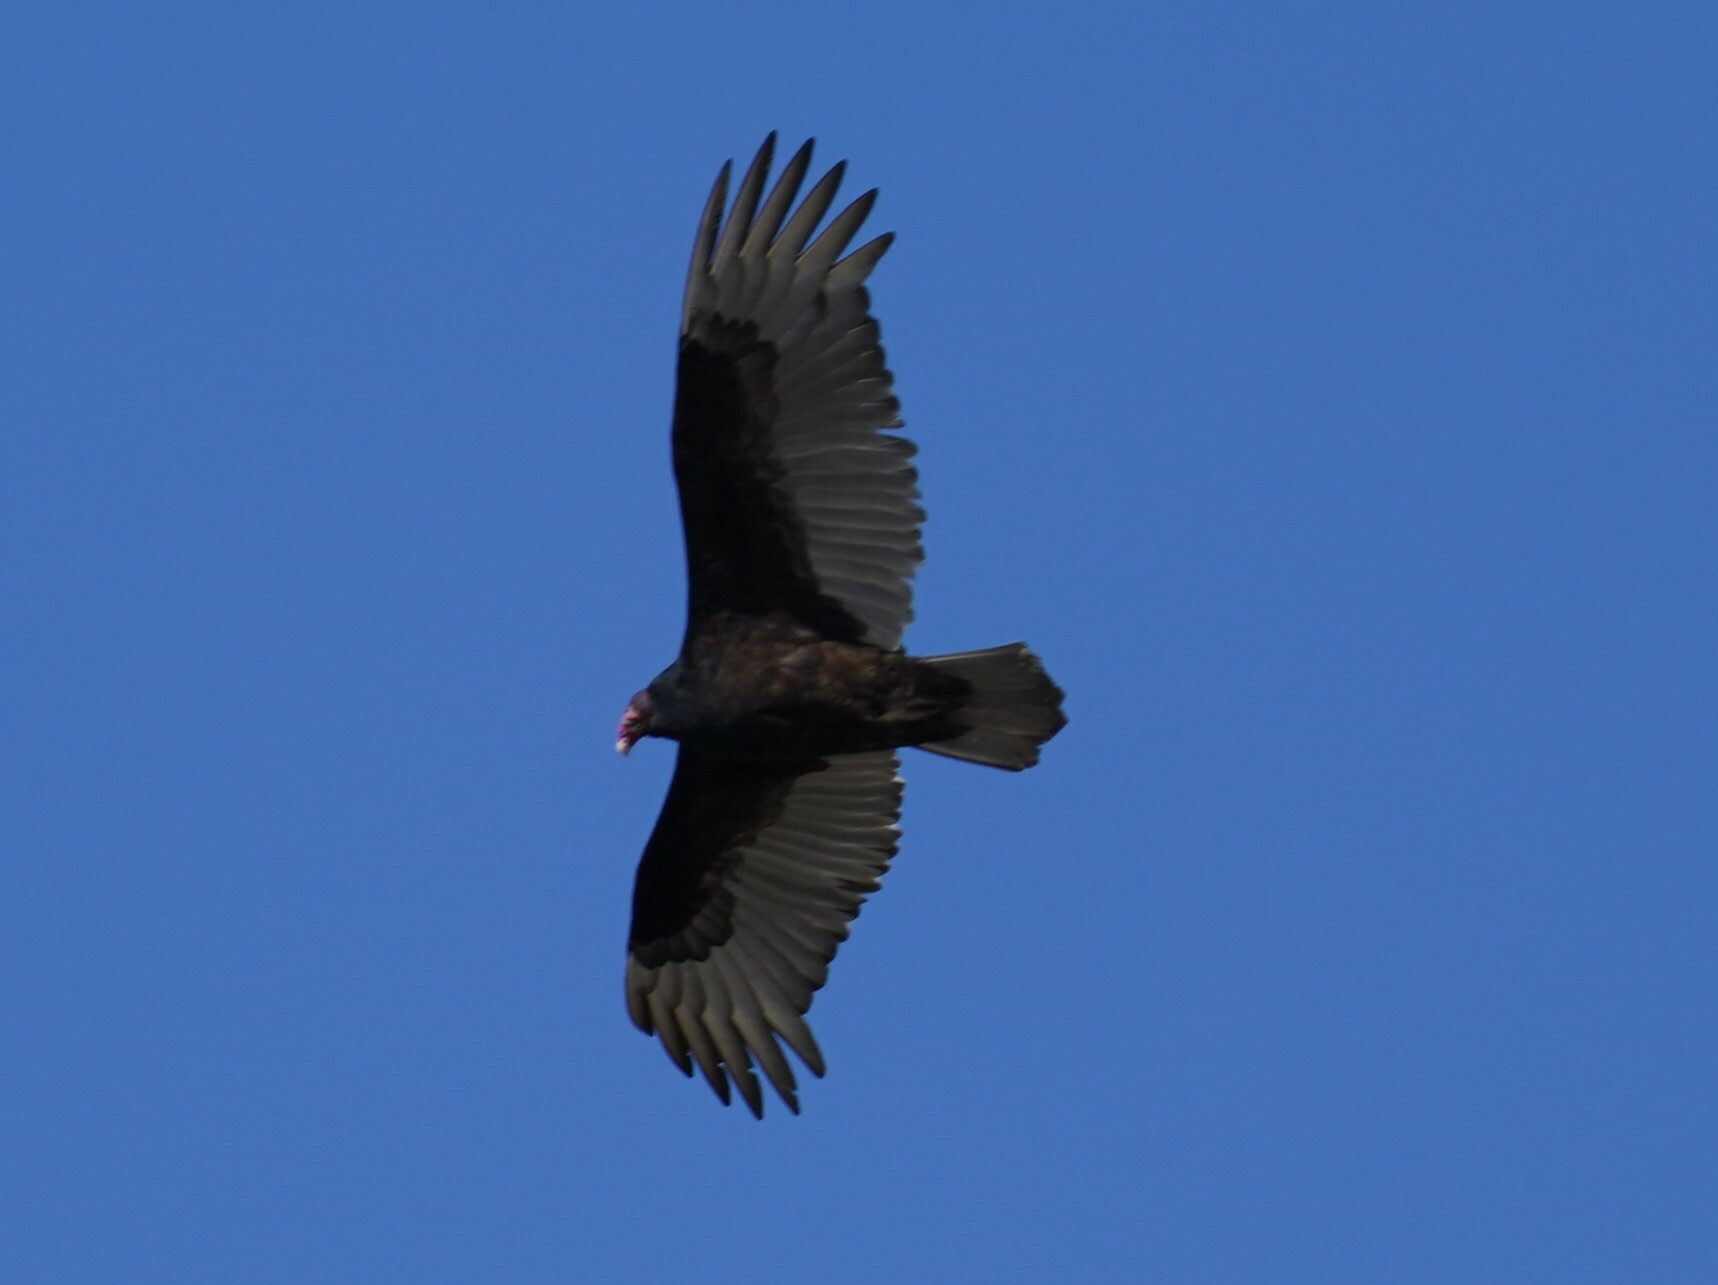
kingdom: Animalia
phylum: Chordata
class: Aves
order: Accipitriformes
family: Cathartidae
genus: Cathartes
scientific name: Cathartes aura
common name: Turkey vulture
